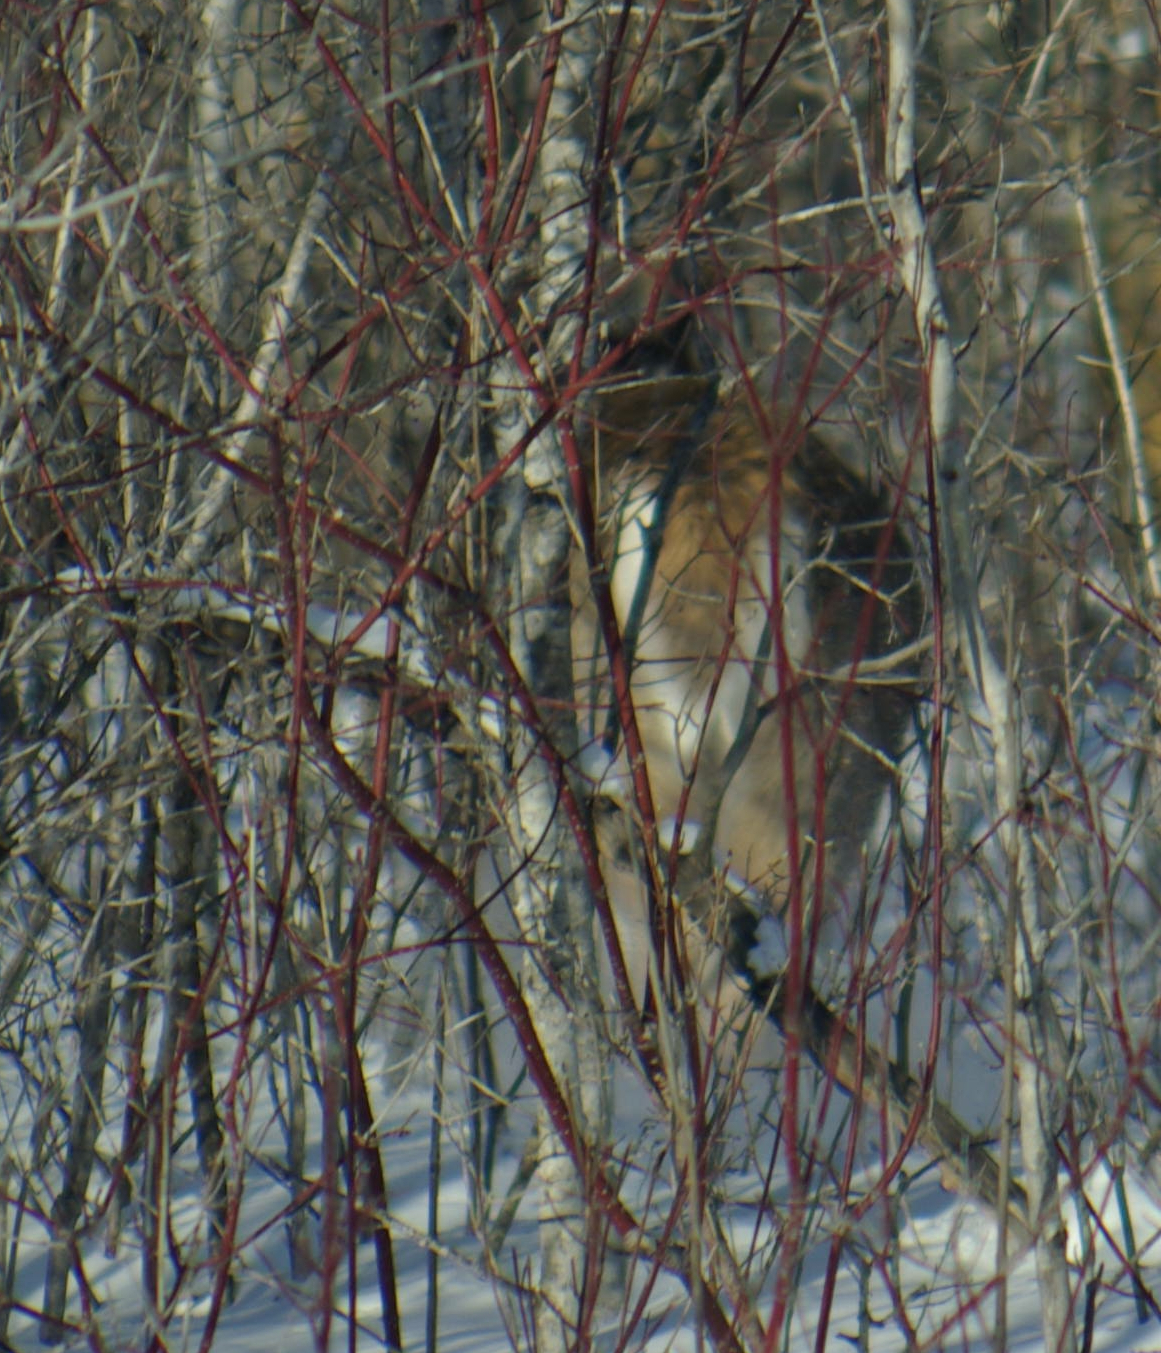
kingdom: Animalia
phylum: Chordata
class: Mammalia
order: Artiodactyla
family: Cervidae
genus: Odocoileus
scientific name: Odocoileus virginianus
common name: White-tailed deer
